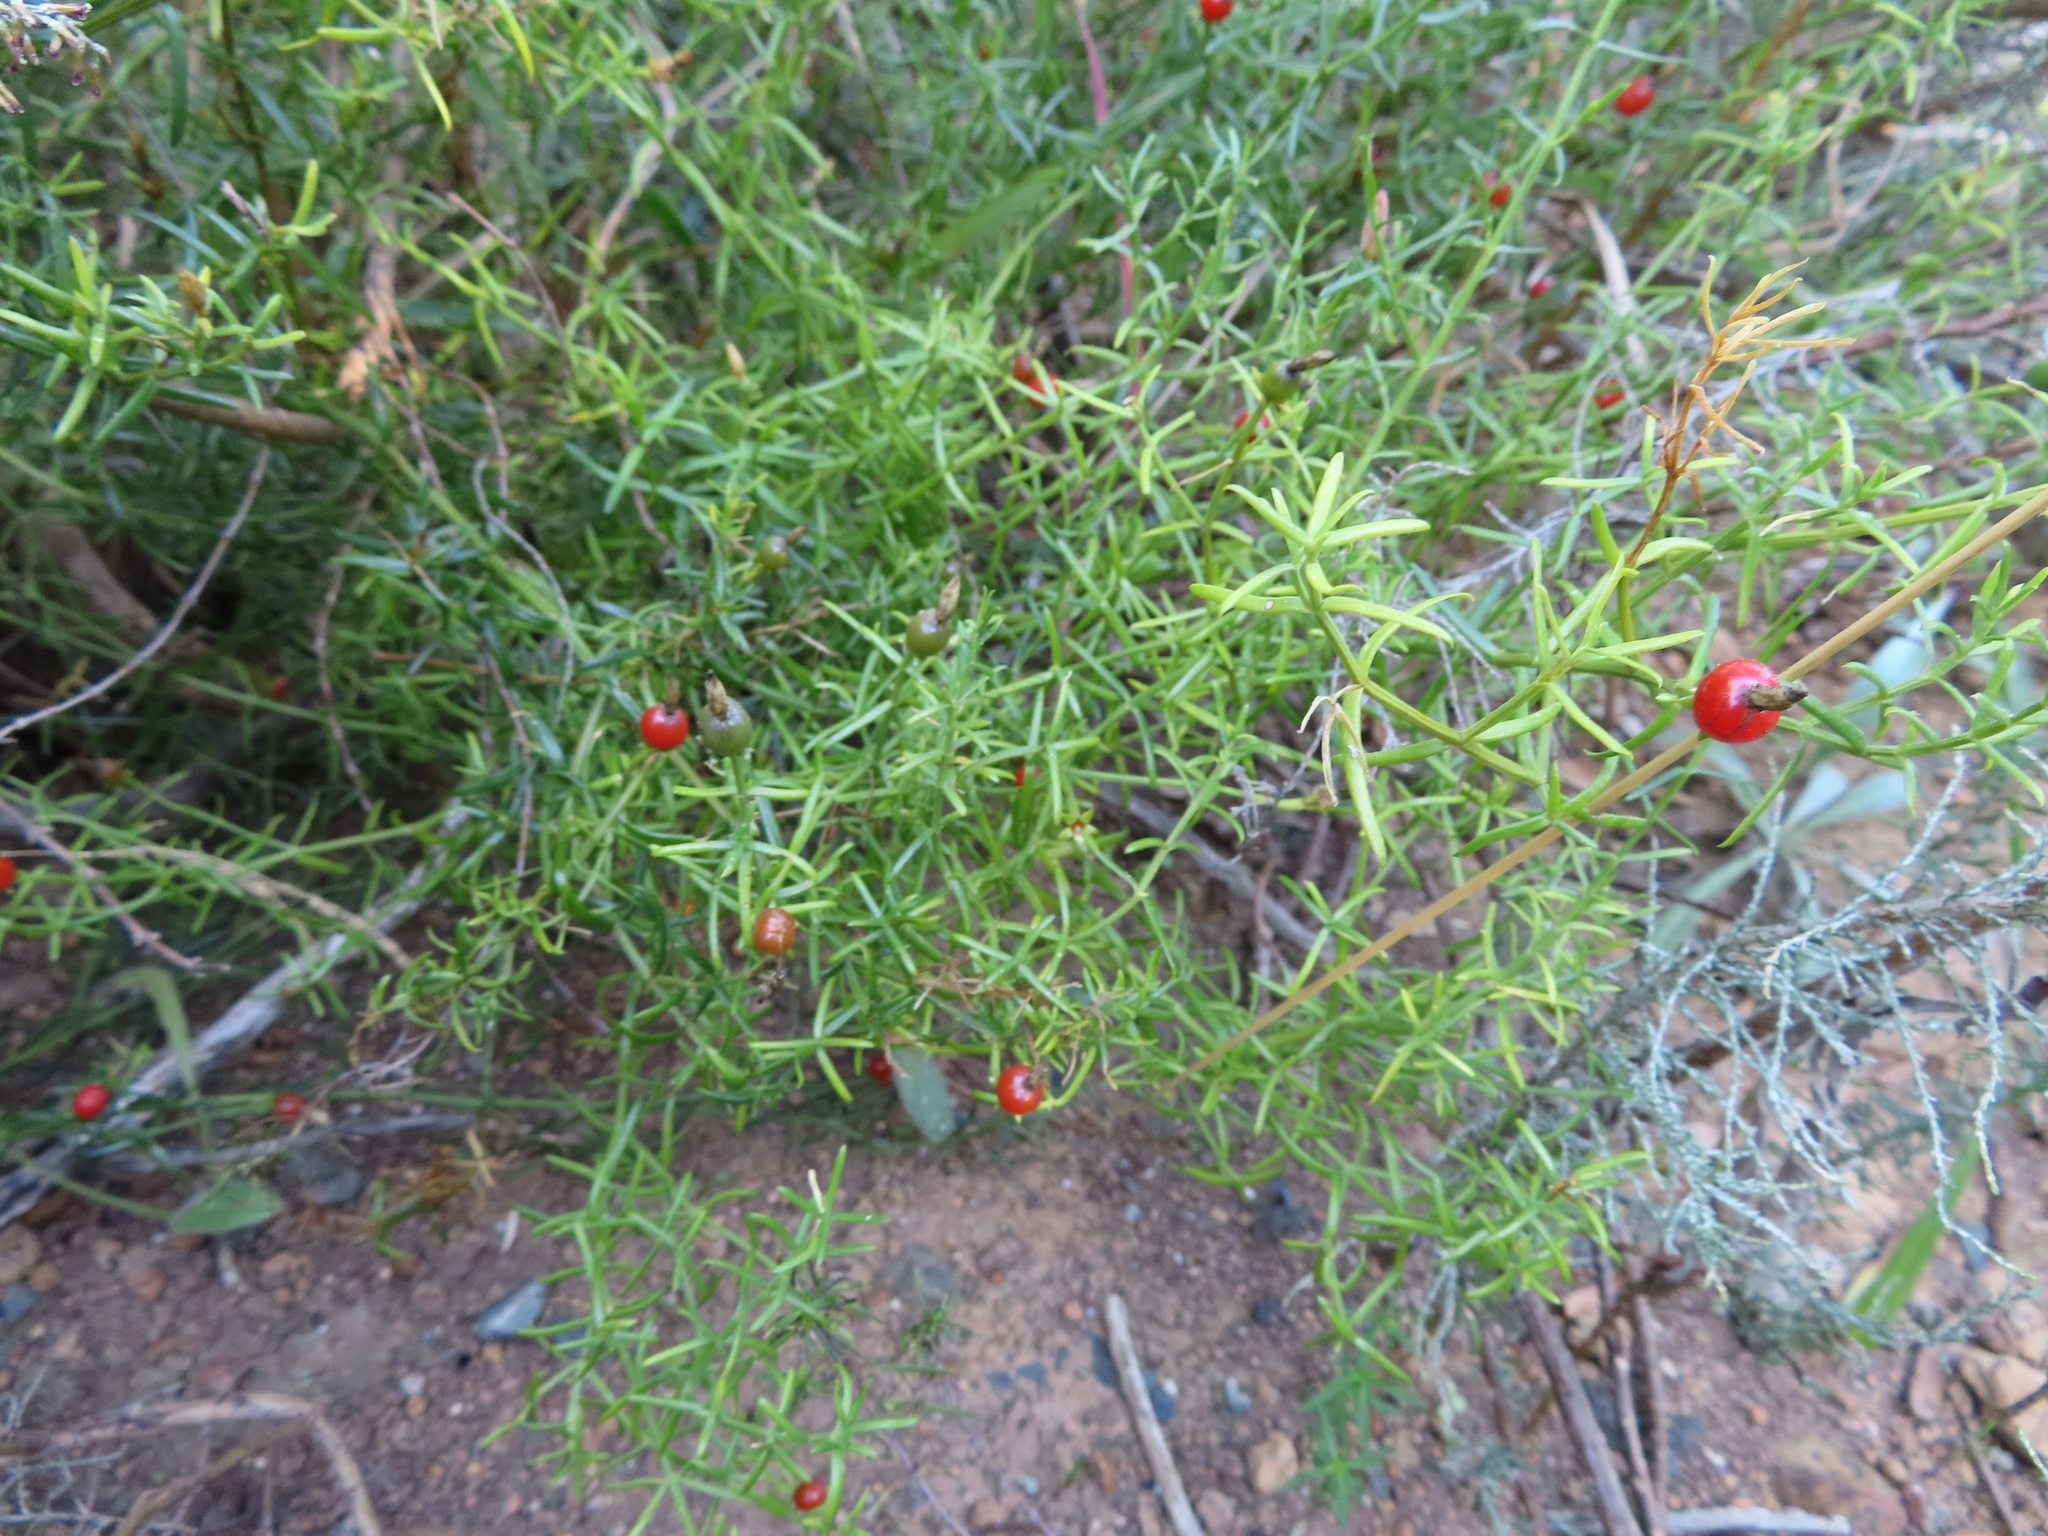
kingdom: Plantae
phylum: Tracheophyta
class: Magnoliopsida
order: Gentianales
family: Gentianaceae
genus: Chironia
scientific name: Chironia baccifera
